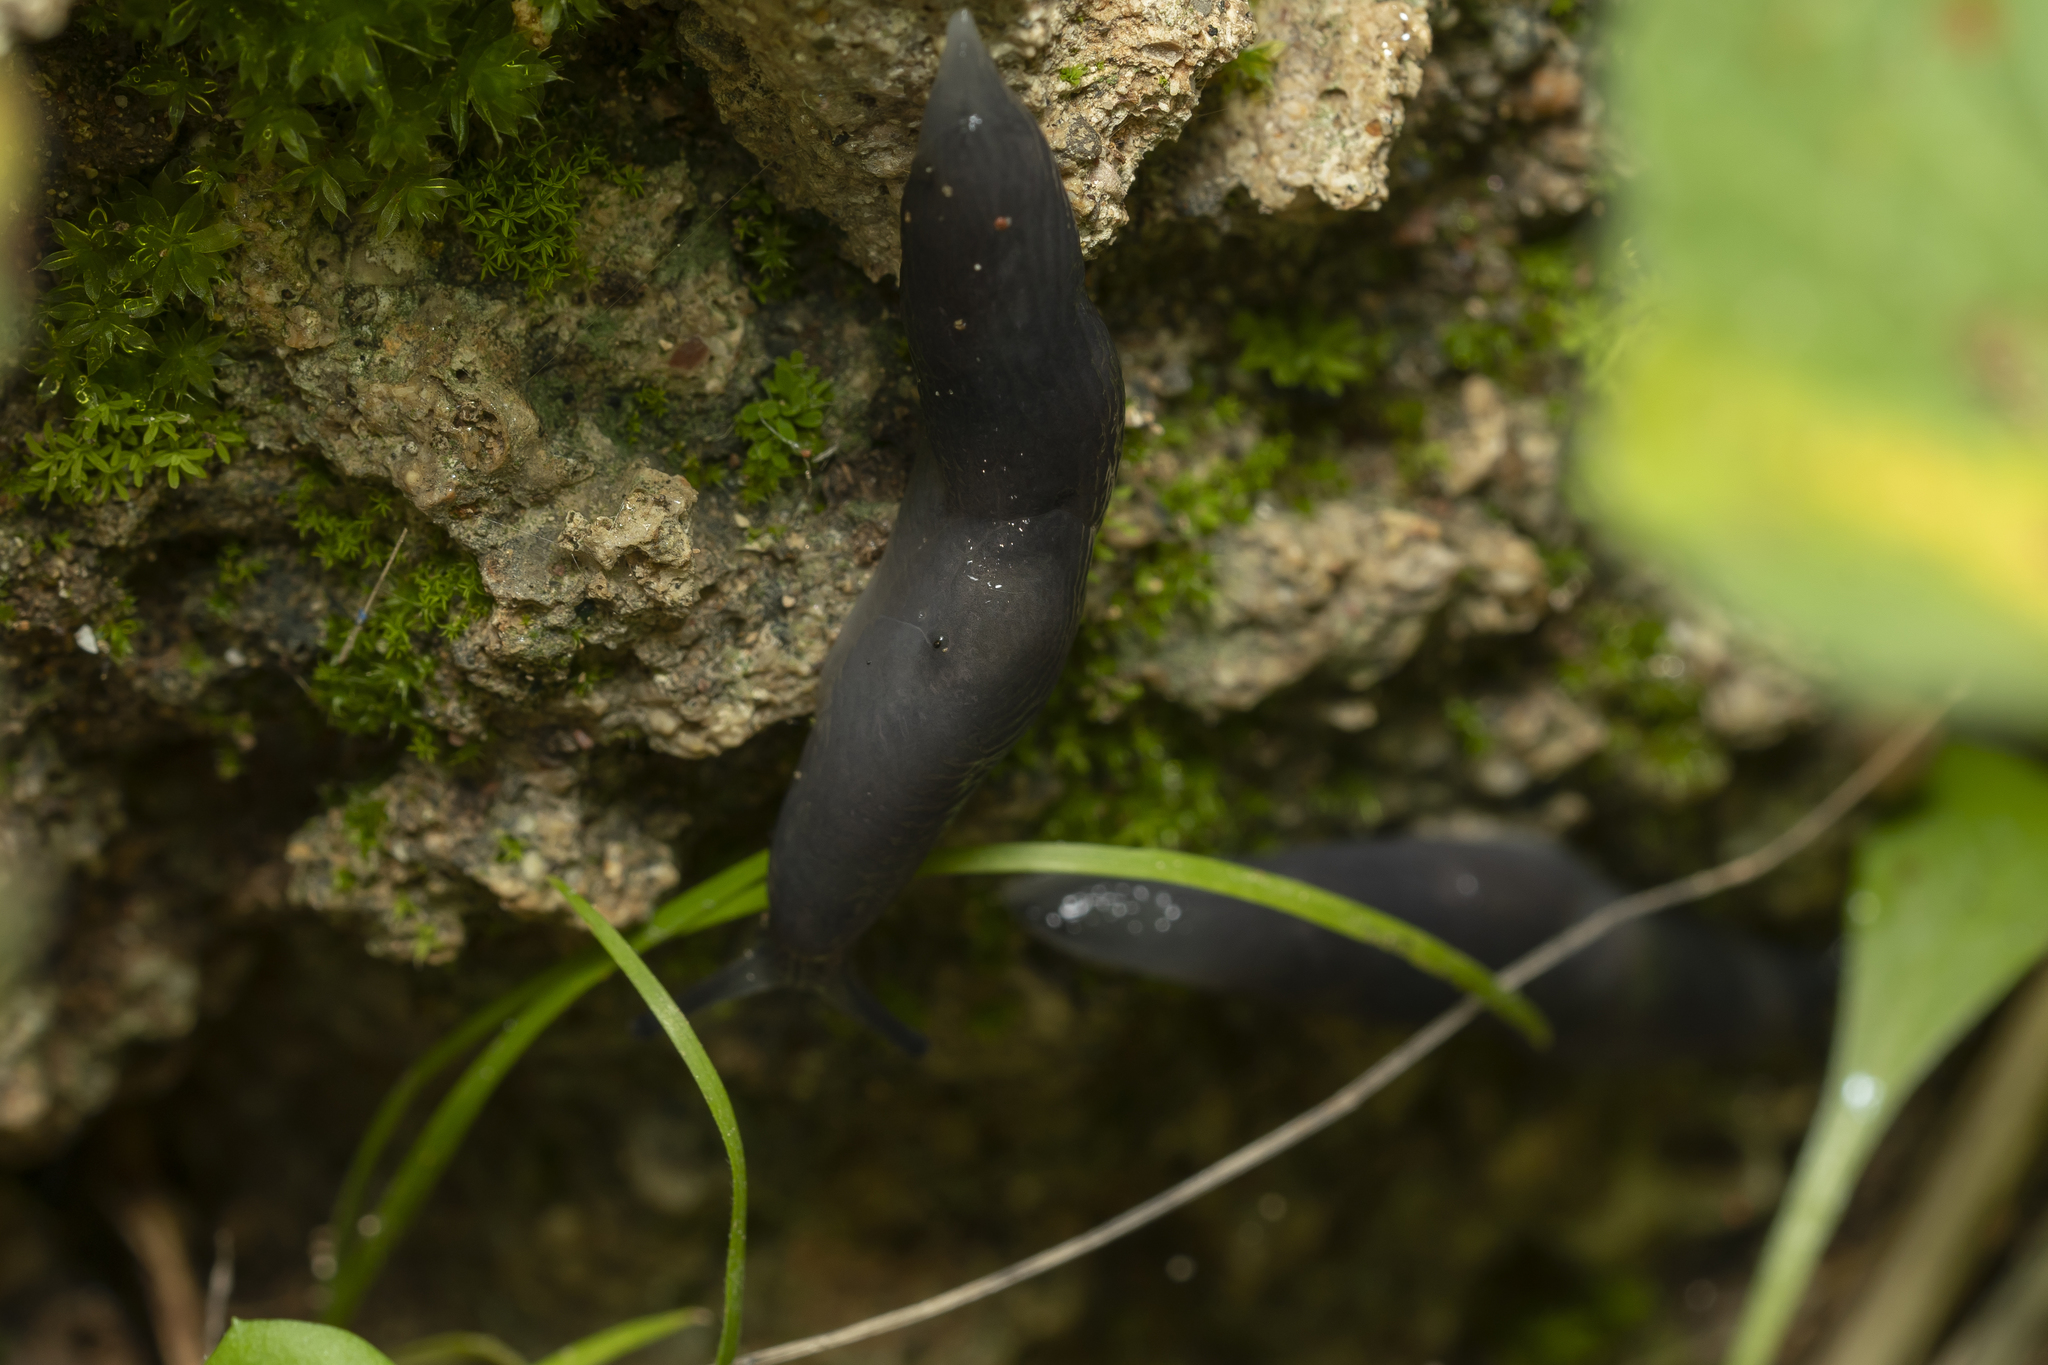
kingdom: Animalia
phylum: Mollusca
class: Gastropoda
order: Stylommatophora
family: Agriolimacidae
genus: Deroceras
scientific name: Deroceras samium
